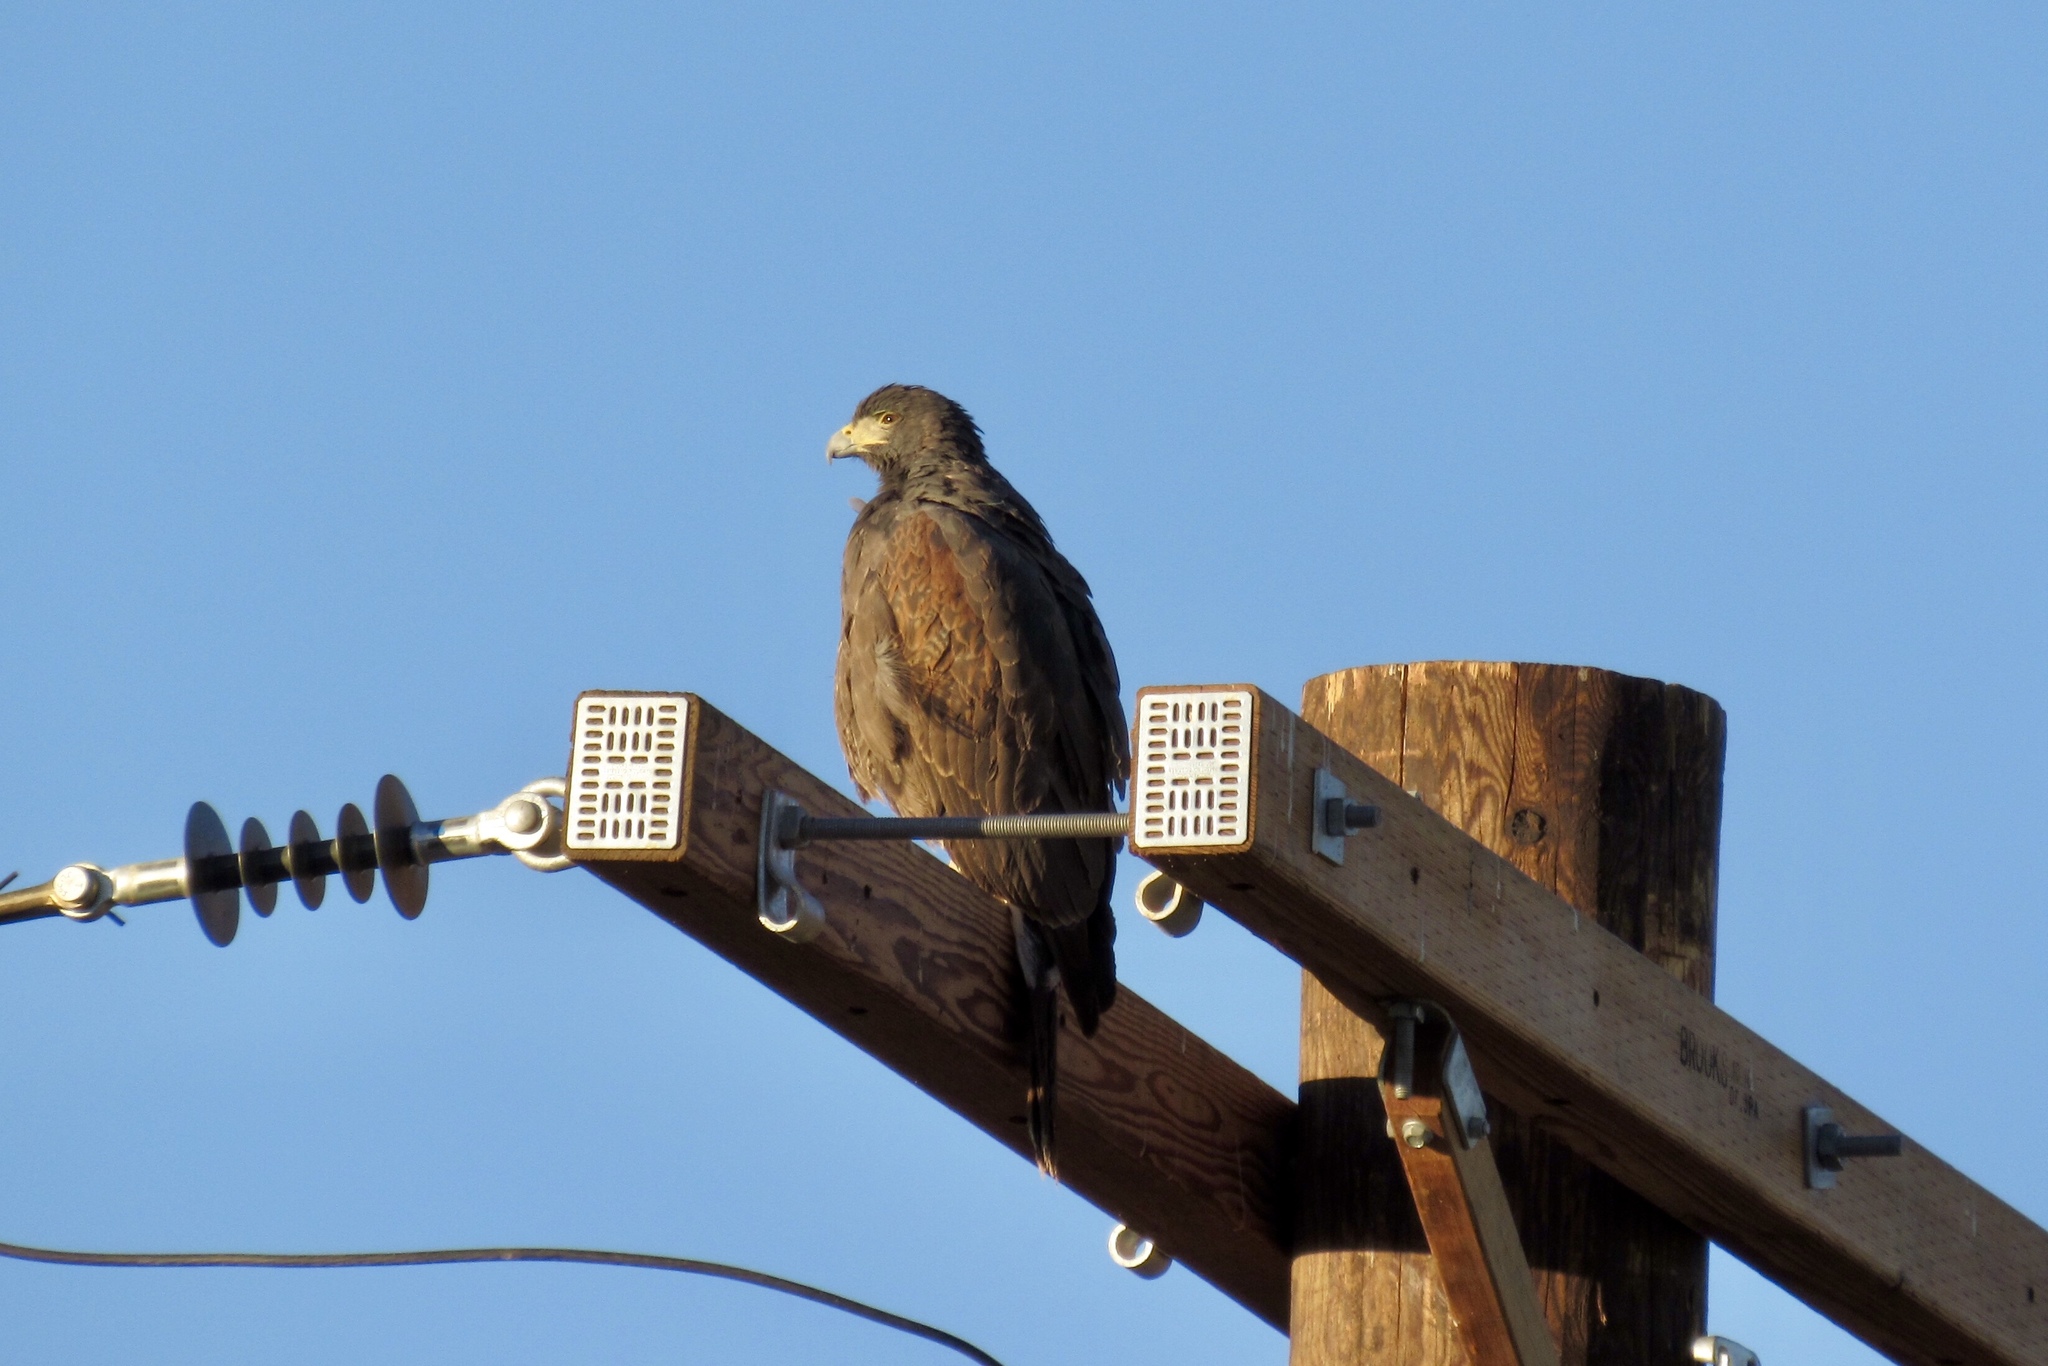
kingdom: Animalia
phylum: Chordata
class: Aves
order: Accipitriformes
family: Accipitridae
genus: Parabuteo
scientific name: Parabuteo unicinctus
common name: Harris's hawk
